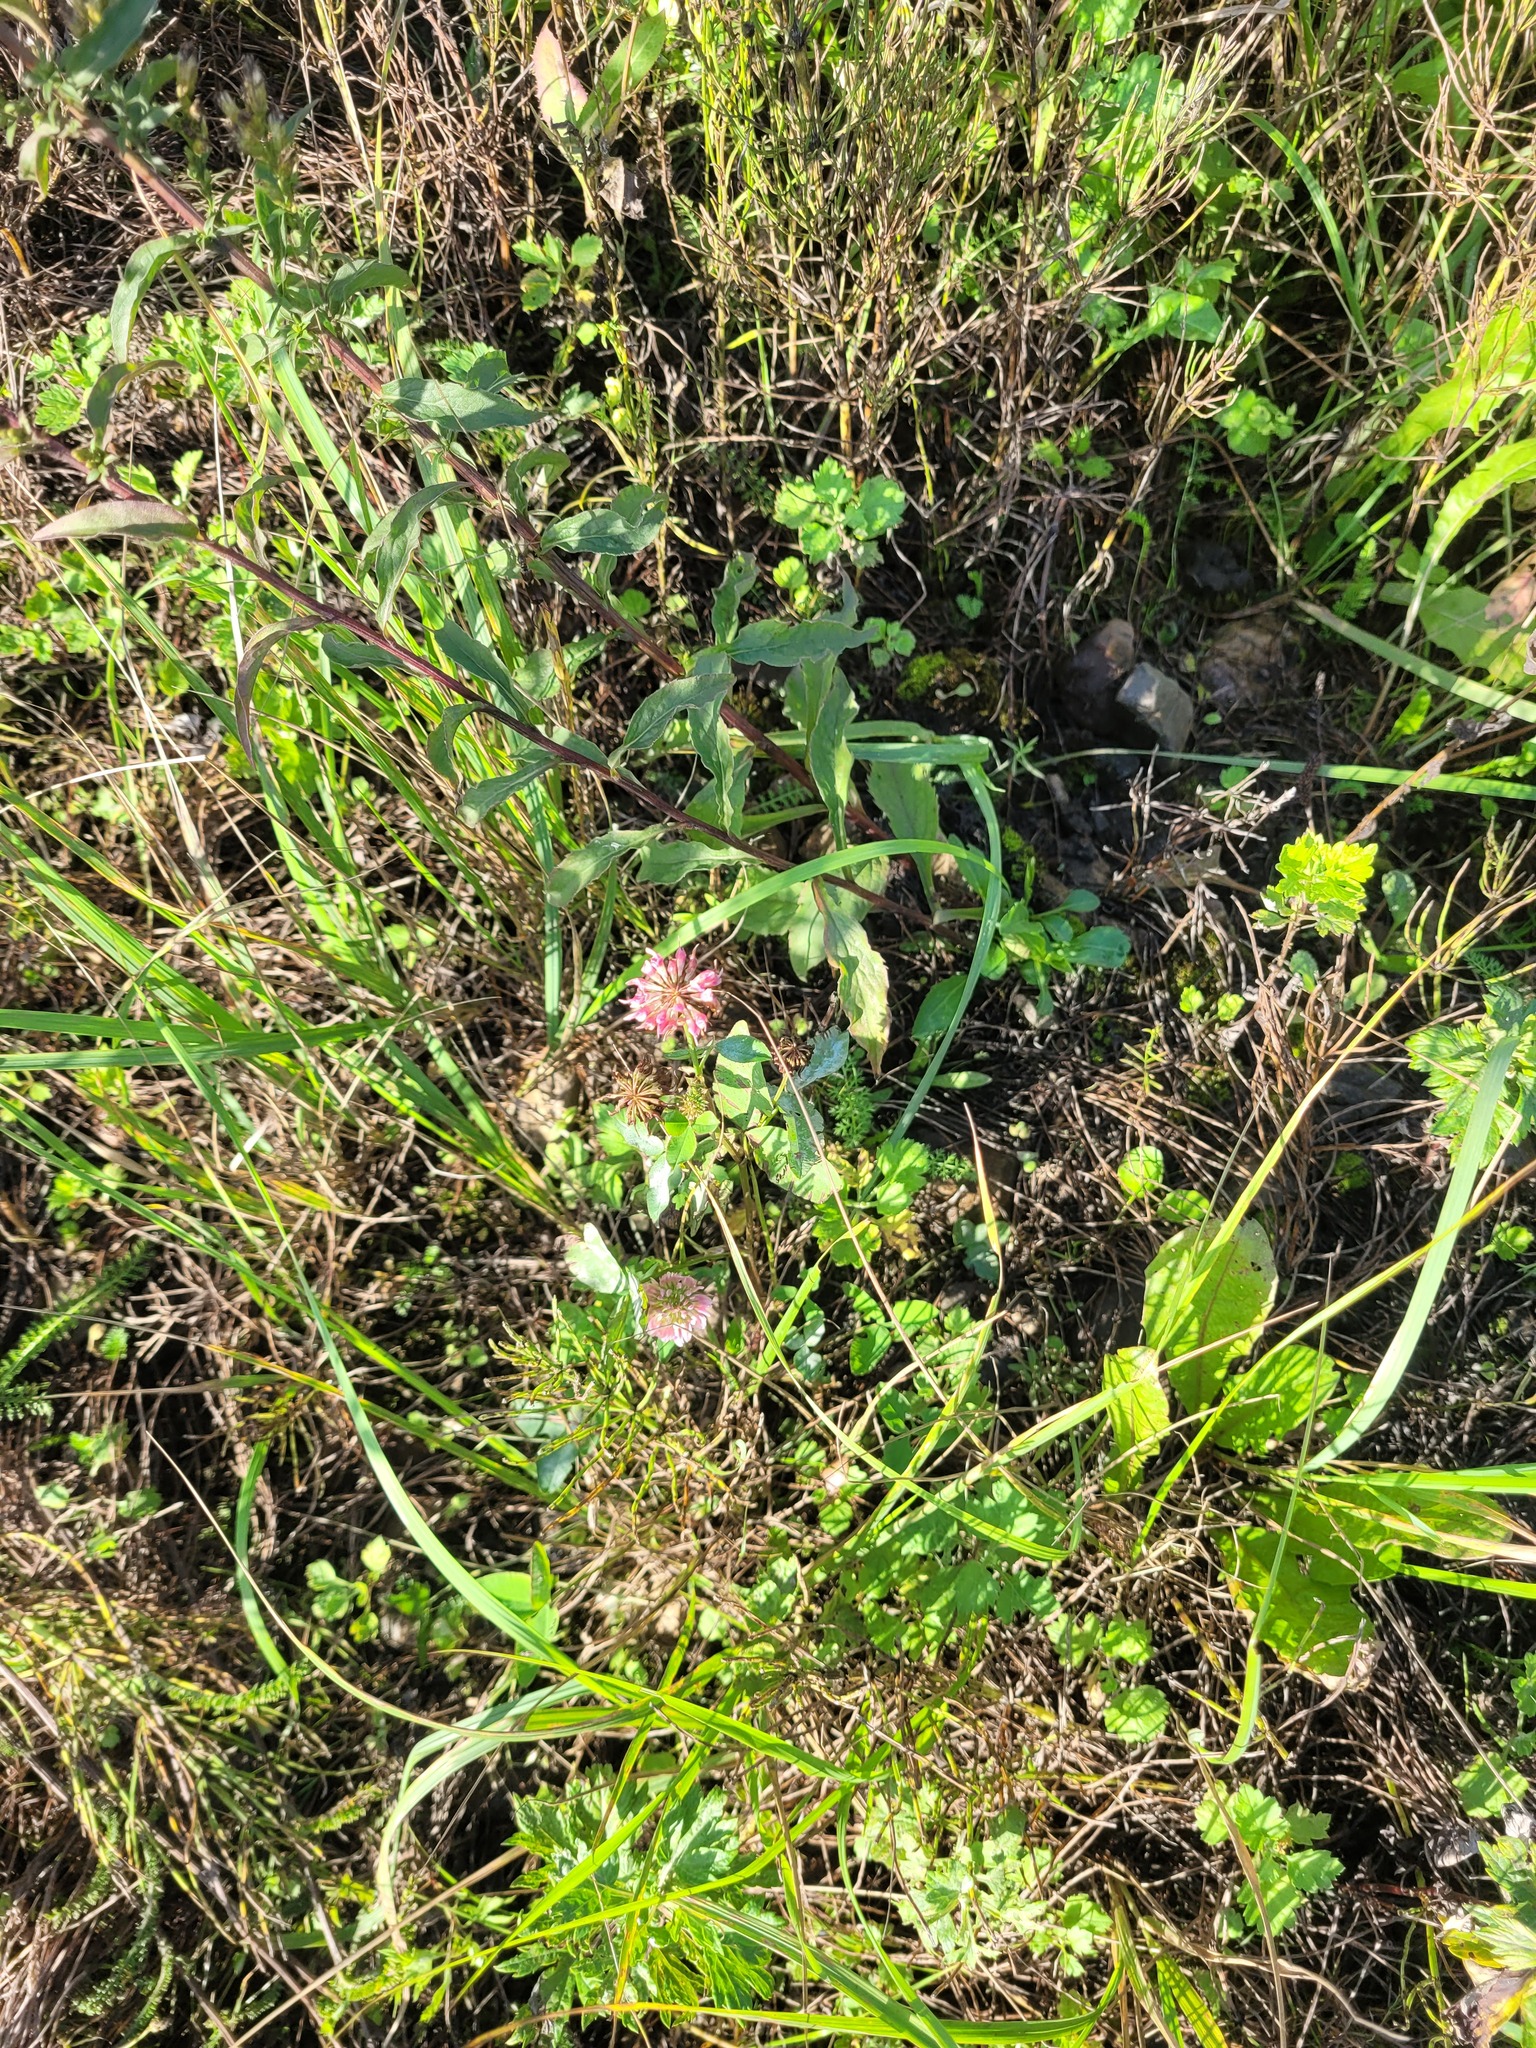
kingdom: Plantae
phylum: Tracheophyta
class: Magnoliopsida
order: Fabales
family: Fabaceae
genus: Trifolium
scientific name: Trifolium hybridum
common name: Alsike clover
